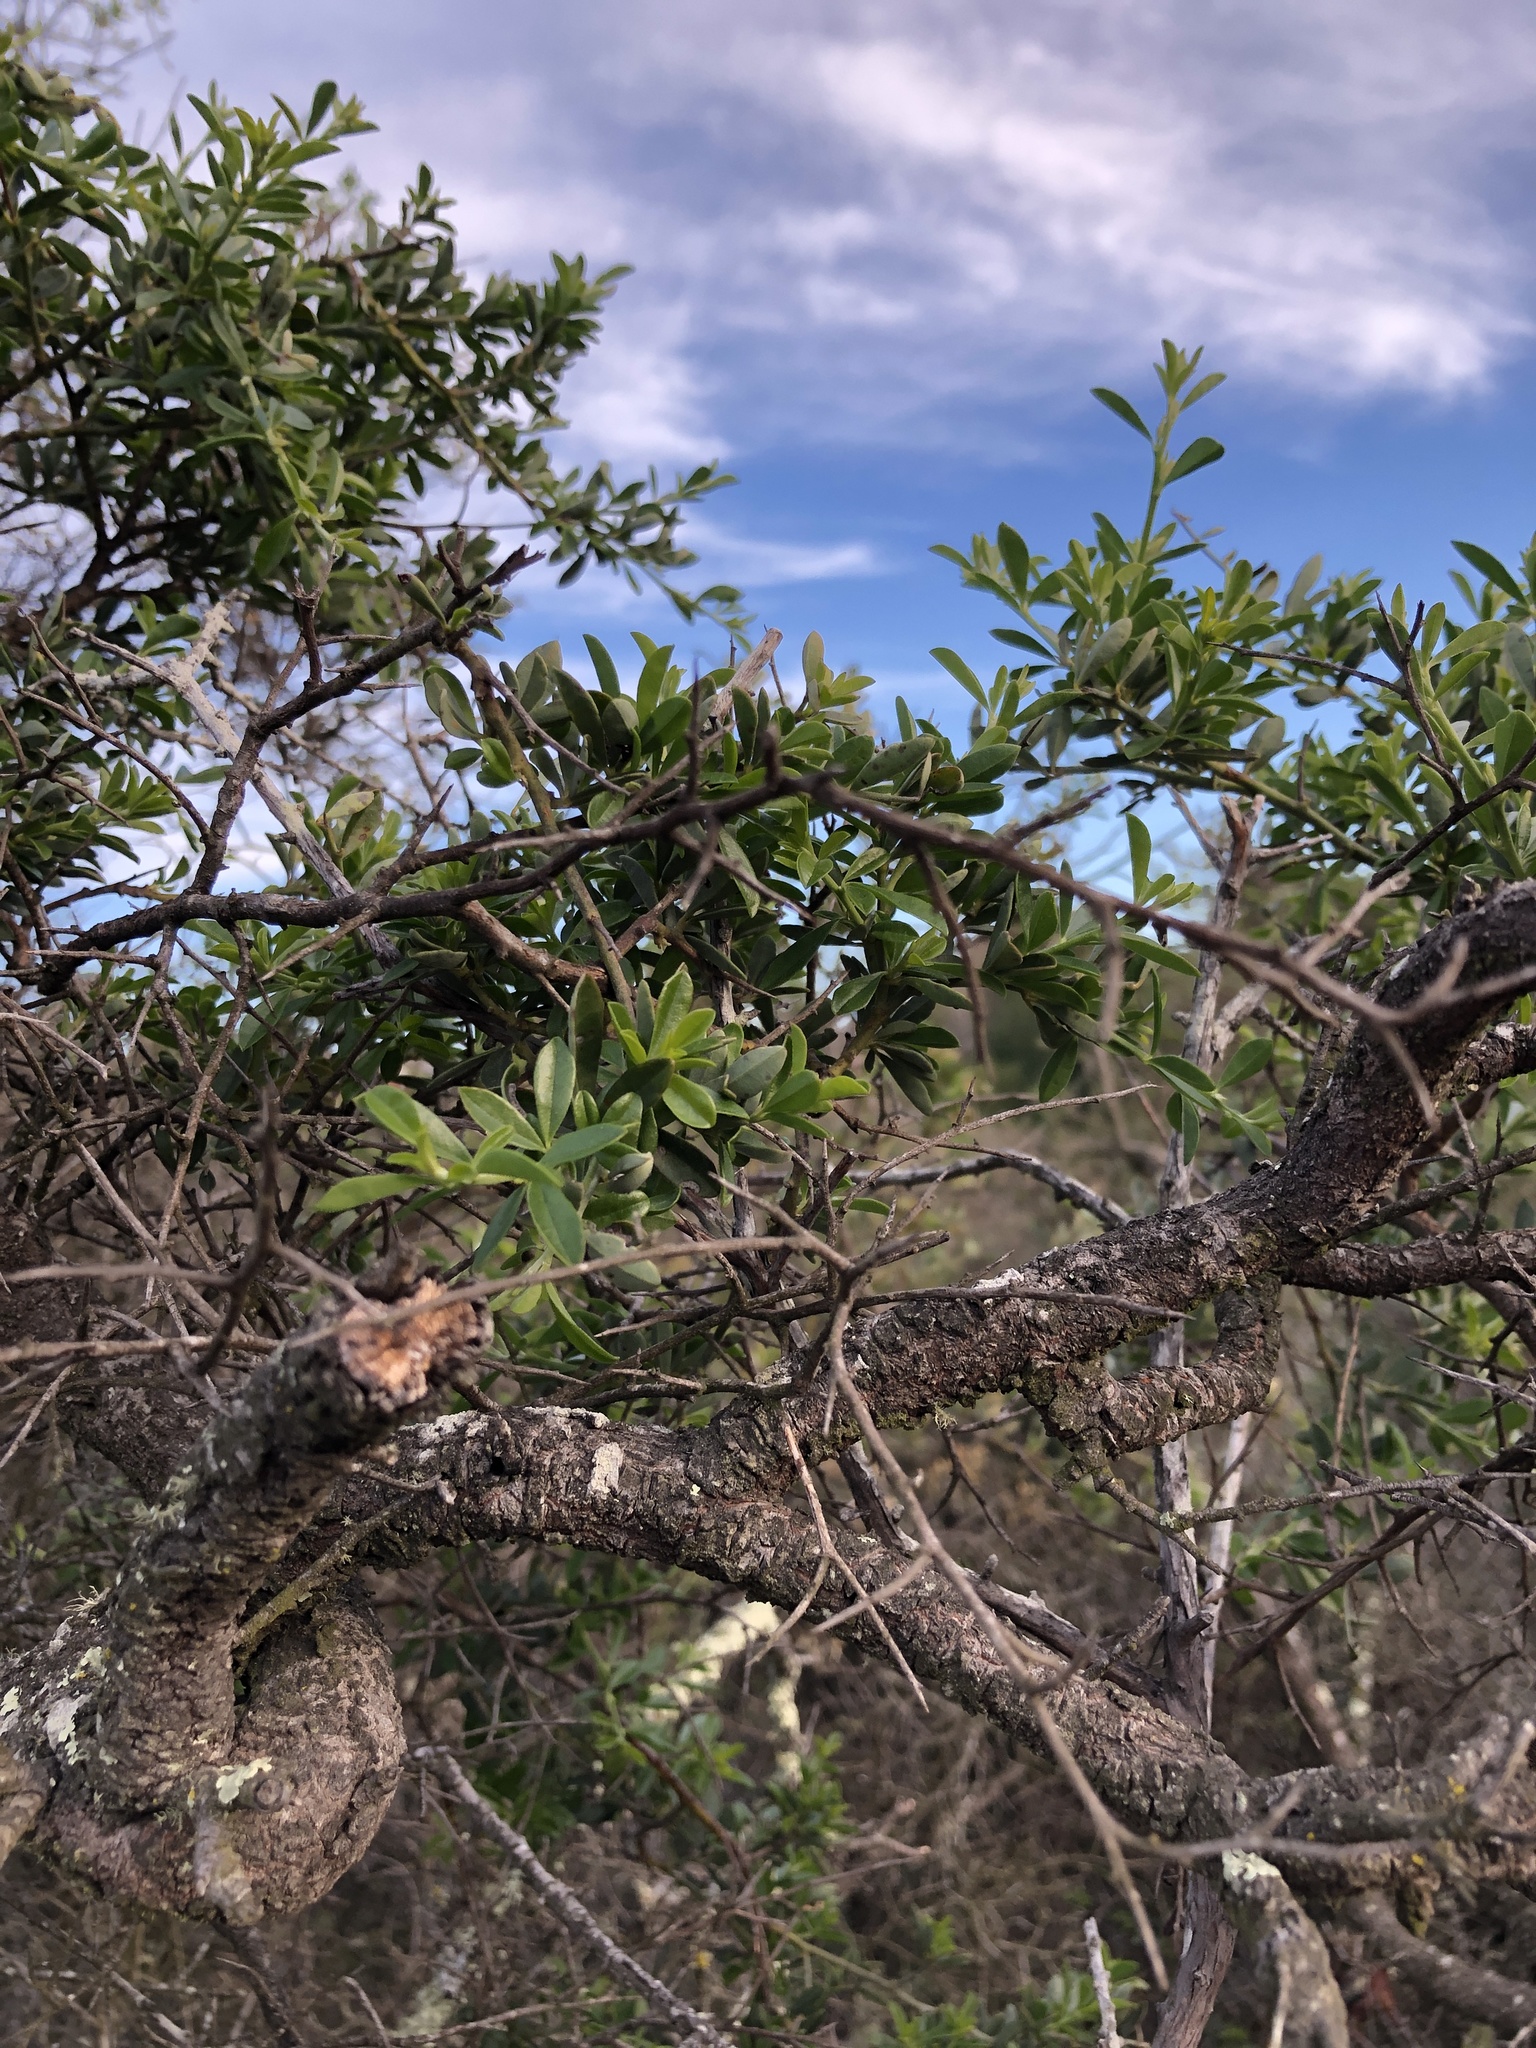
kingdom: Plantae
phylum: Tracheophyta
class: Magnoliopsida
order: Fabales
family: Fabaceae
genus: Pickeringia
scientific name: Pickeringia montana
